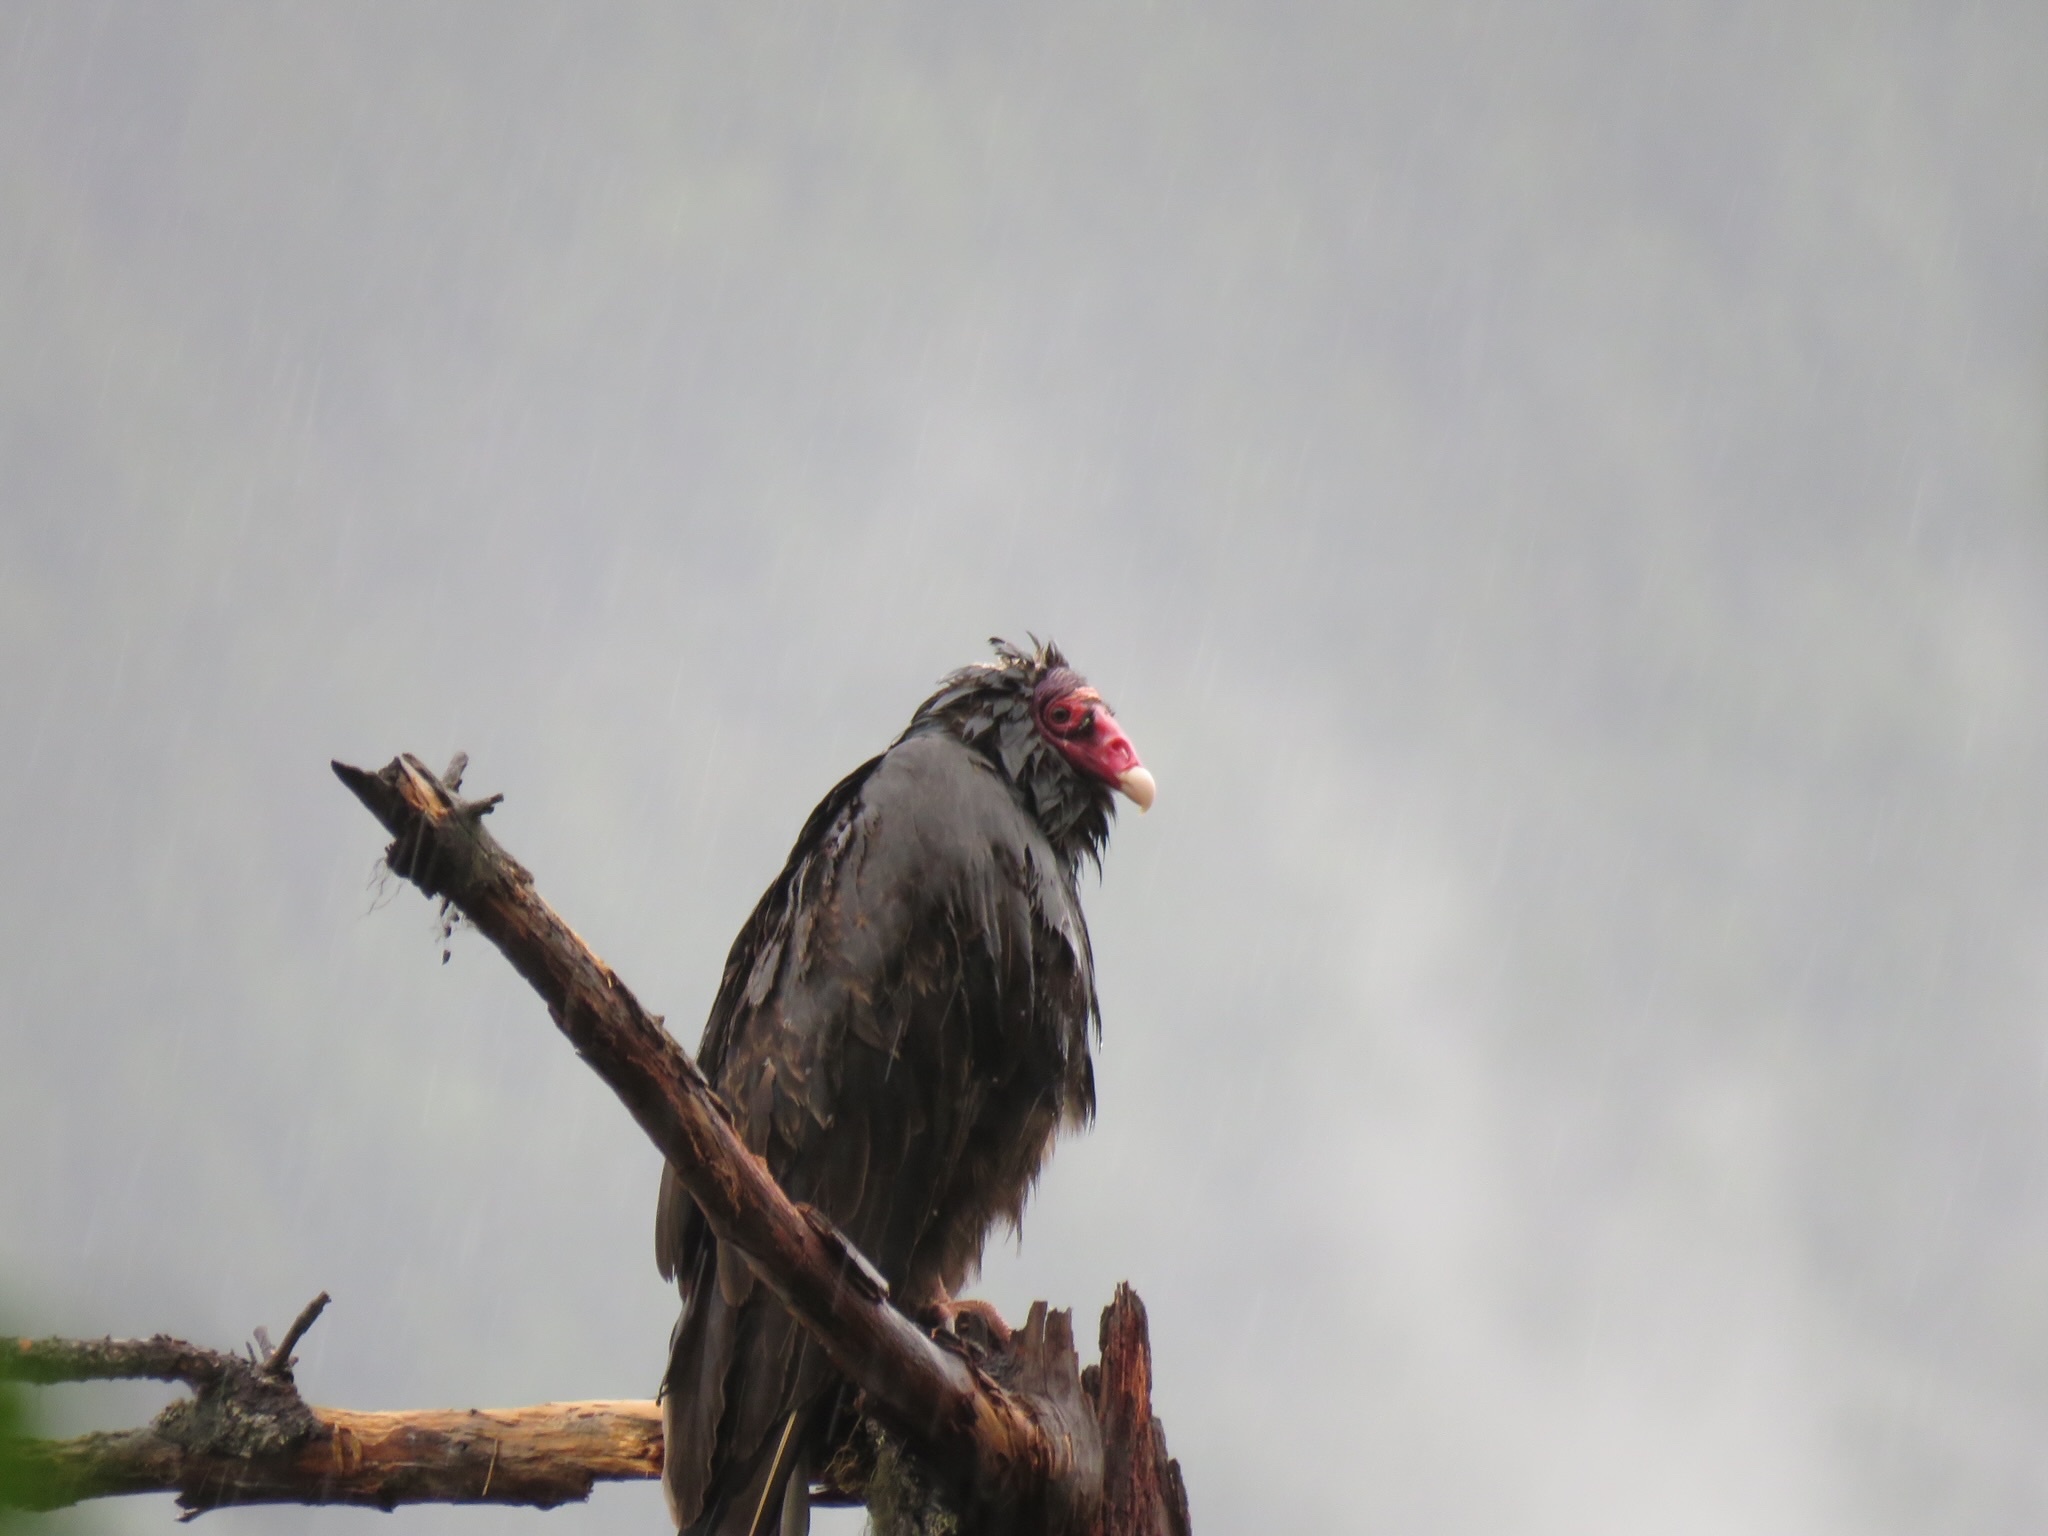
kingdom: Animalia
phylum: Chordata
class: Aves
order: Accipitriformes
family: Cathartidae
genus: Cathartes
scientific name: Cathartes aura
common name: Turkey vulture
